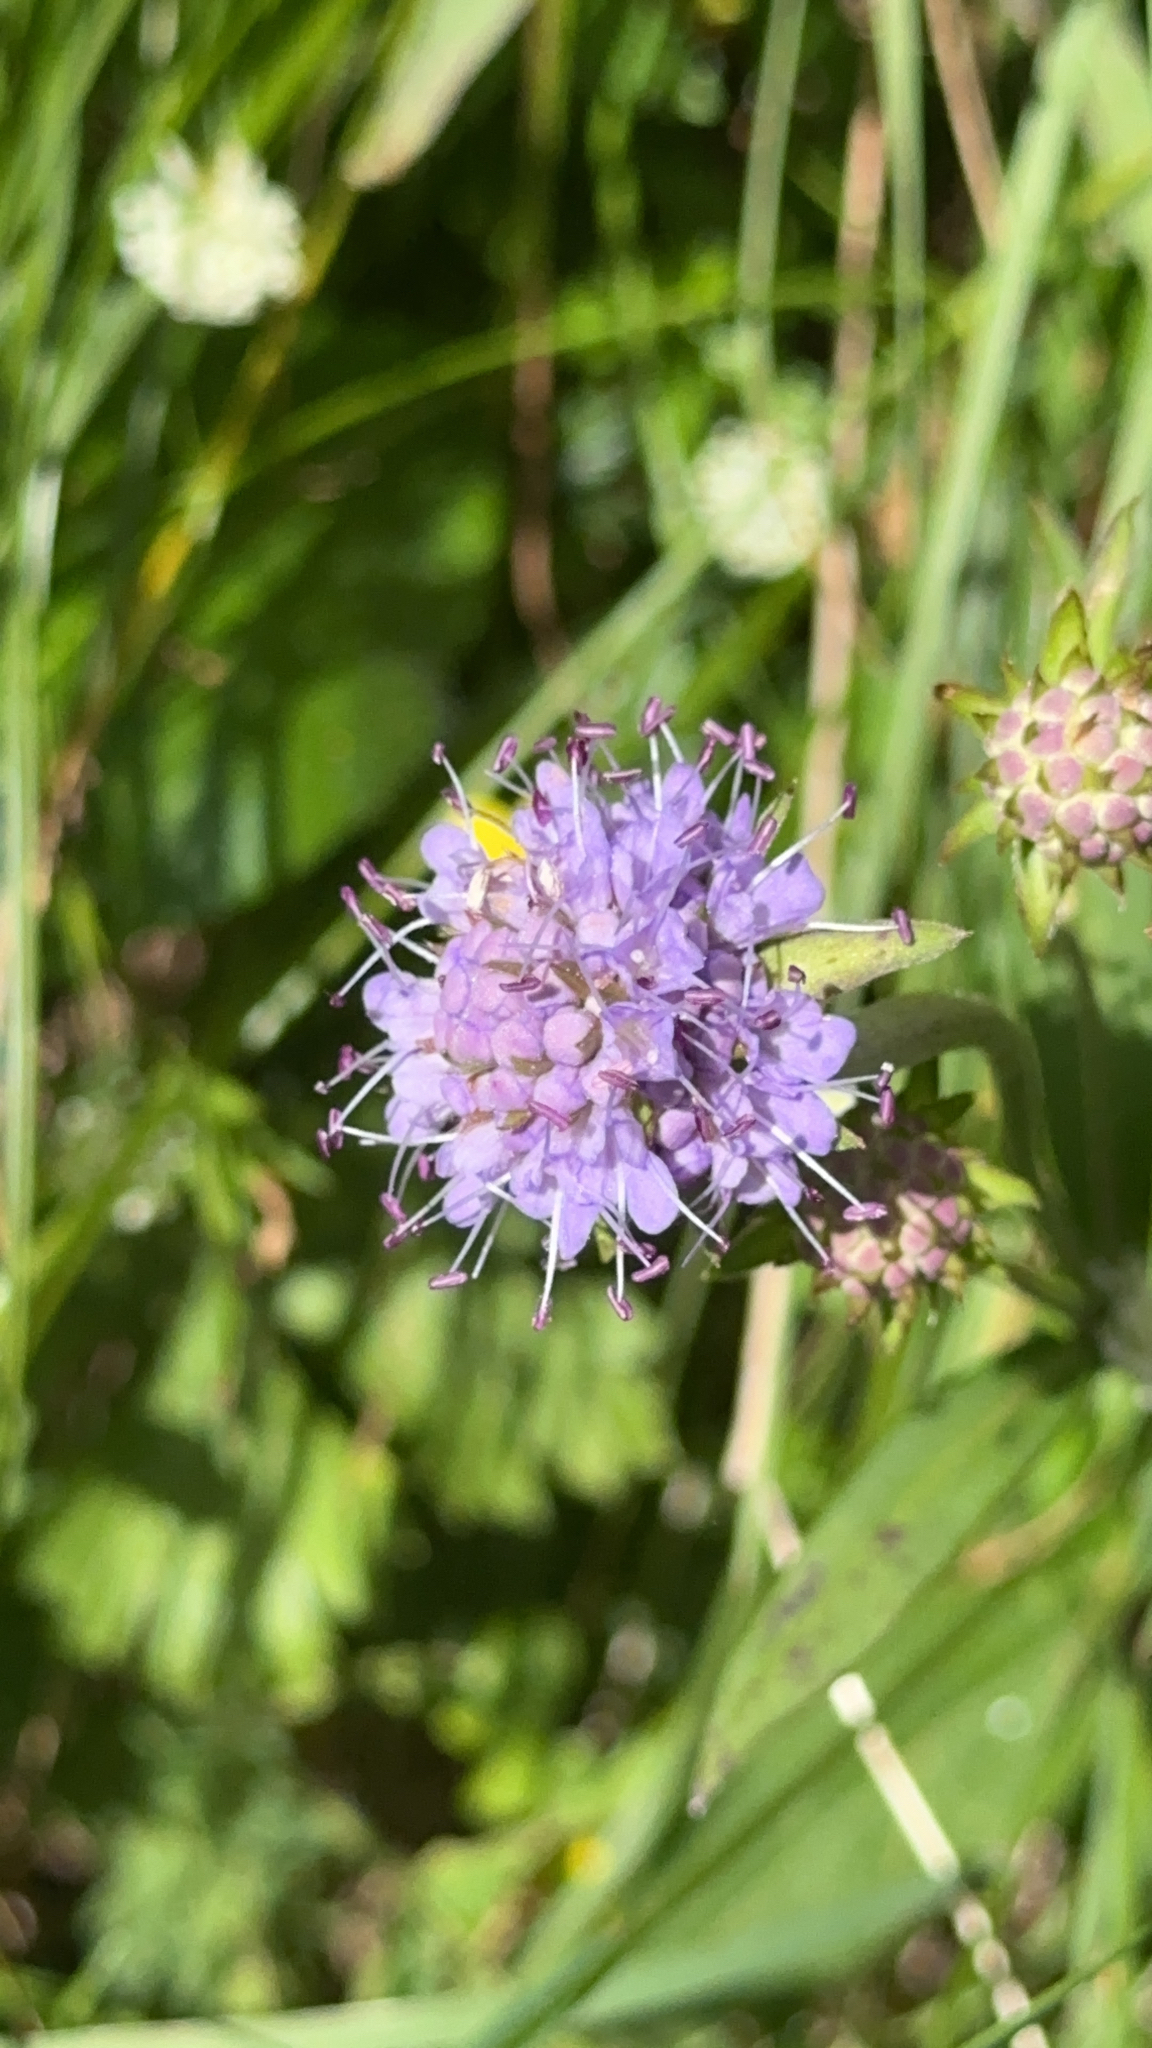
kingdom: Plantae
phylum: Tracheophyta
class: Magnoliopsida
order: Dipsacales
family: Caprifoliaceae
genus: Succisa
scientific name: Succisa pratensis
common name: Devil's-bit
